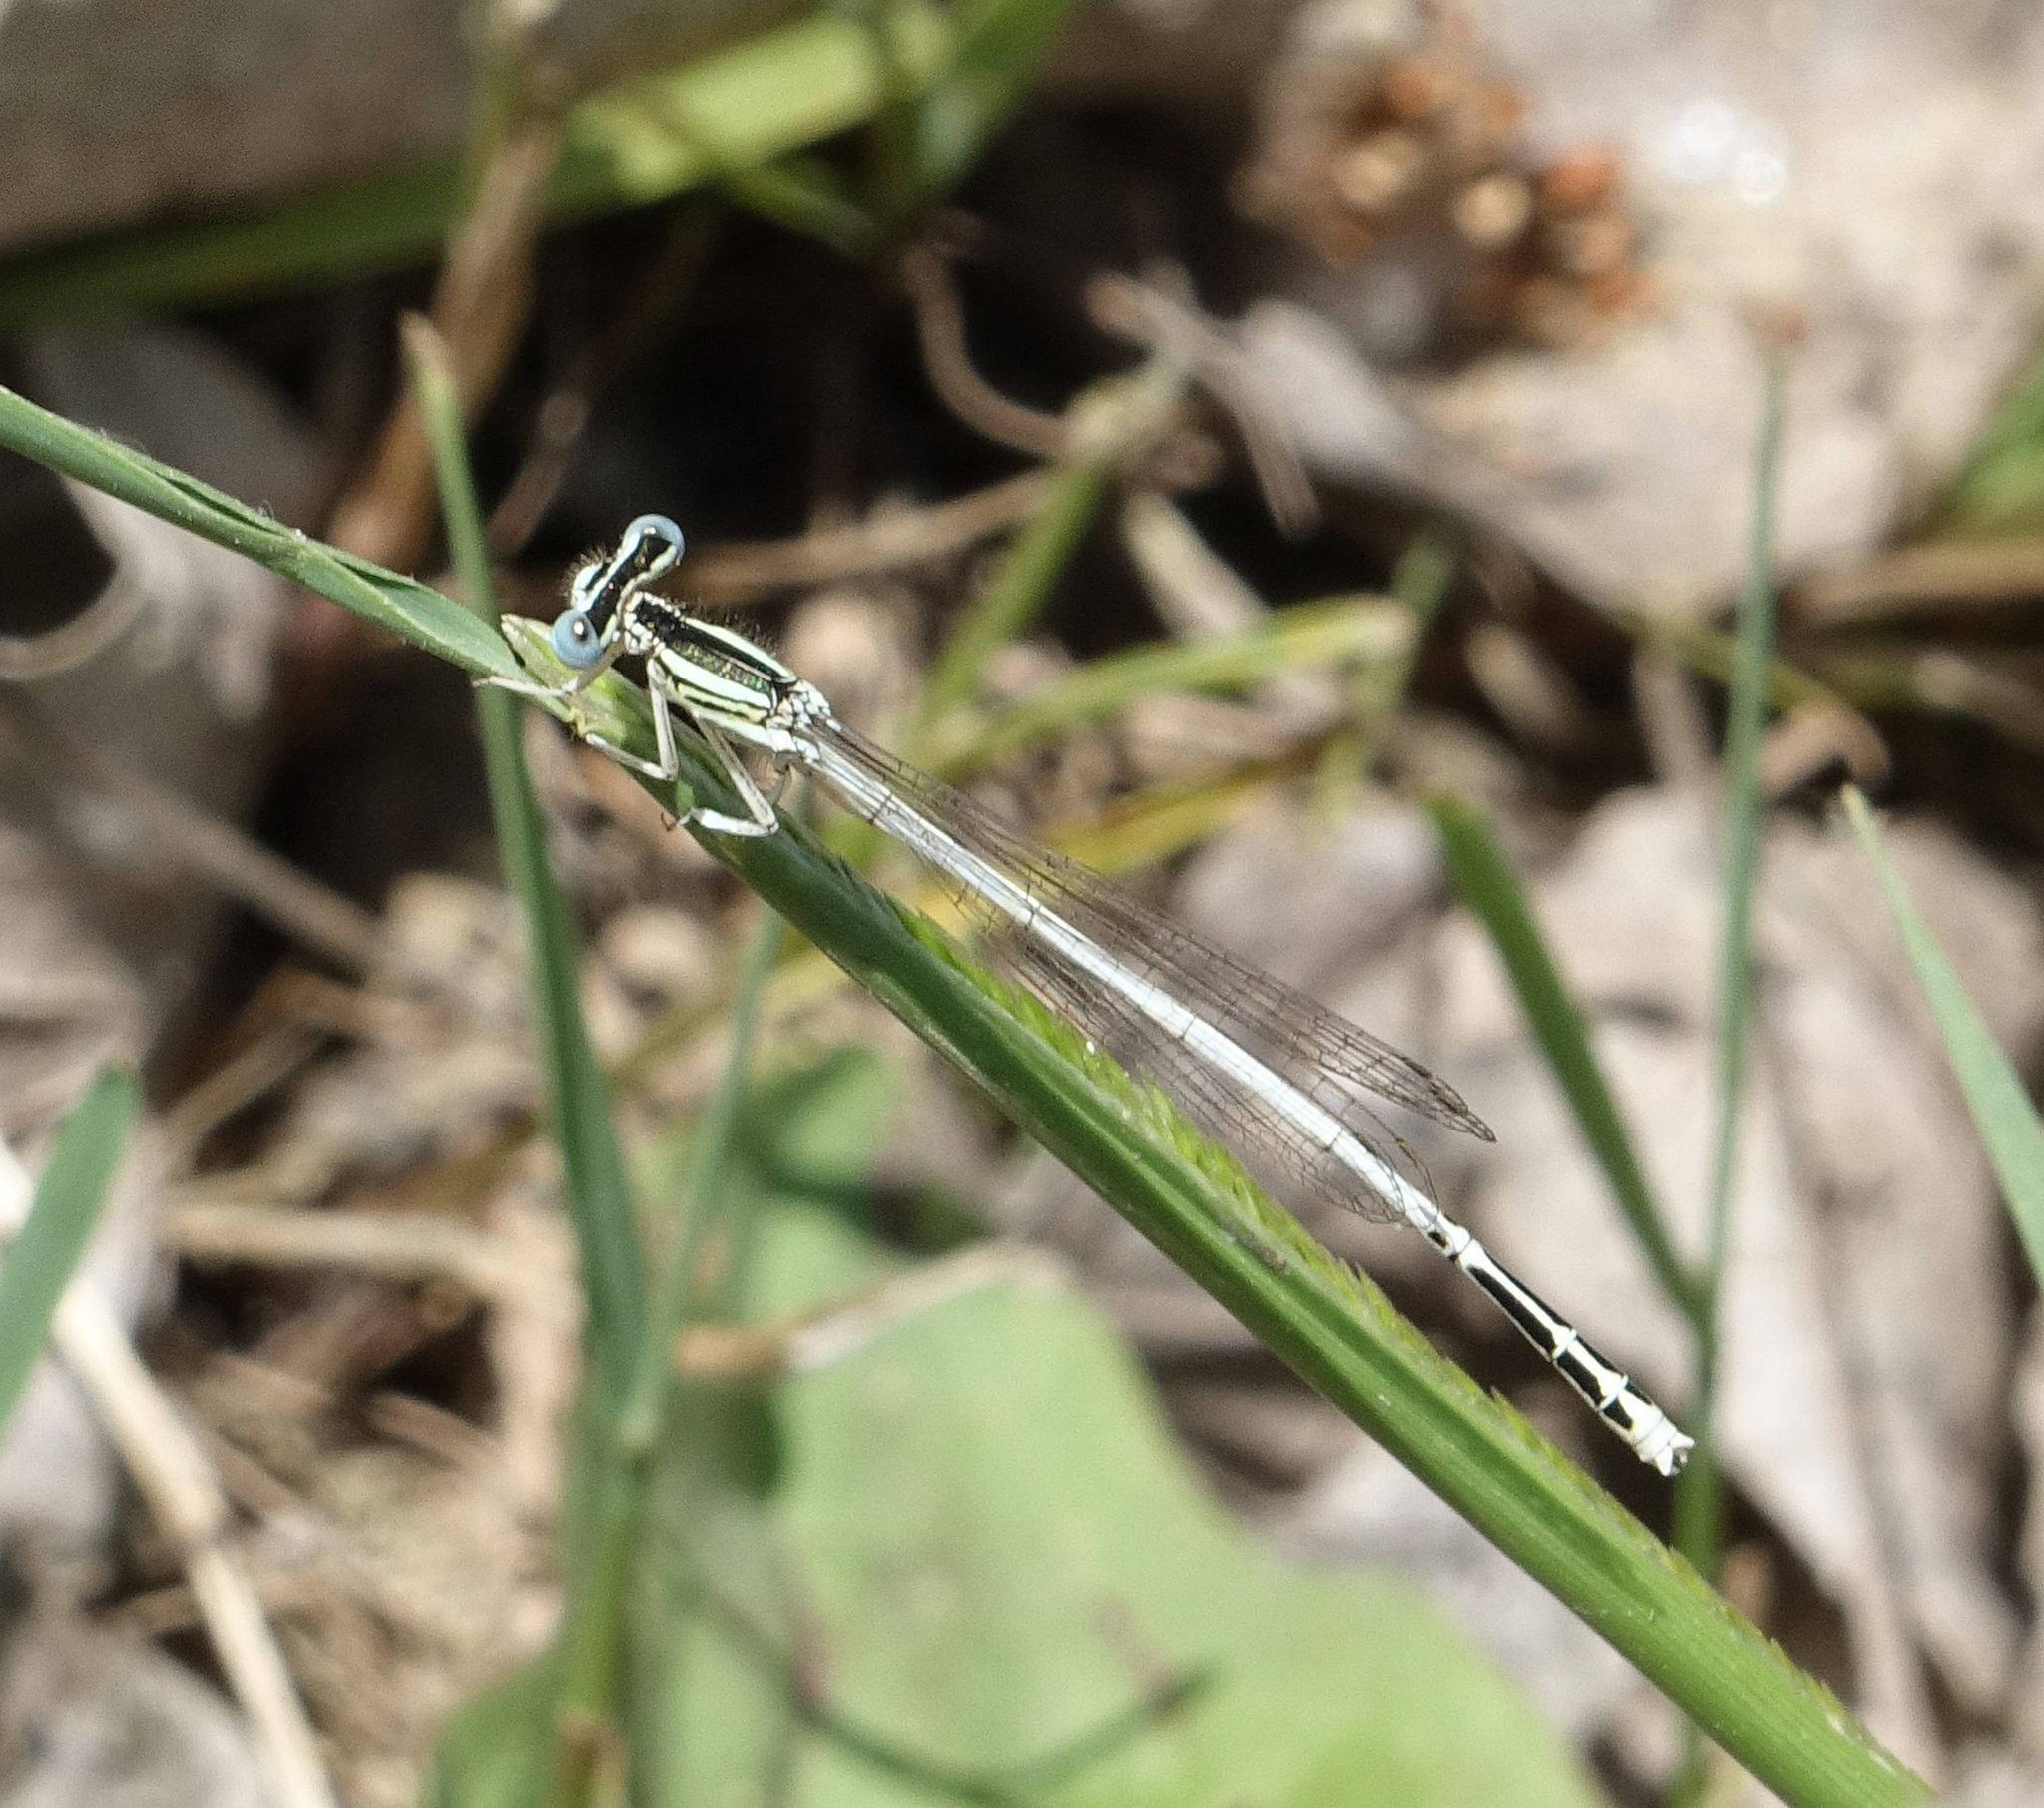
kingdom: Animalia
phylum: Arthropoda
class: Insecta
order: Odonata
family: Platycnemididae
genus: Platycnemis
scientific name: Platycnemis dealbata
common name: Ivory featherleg
